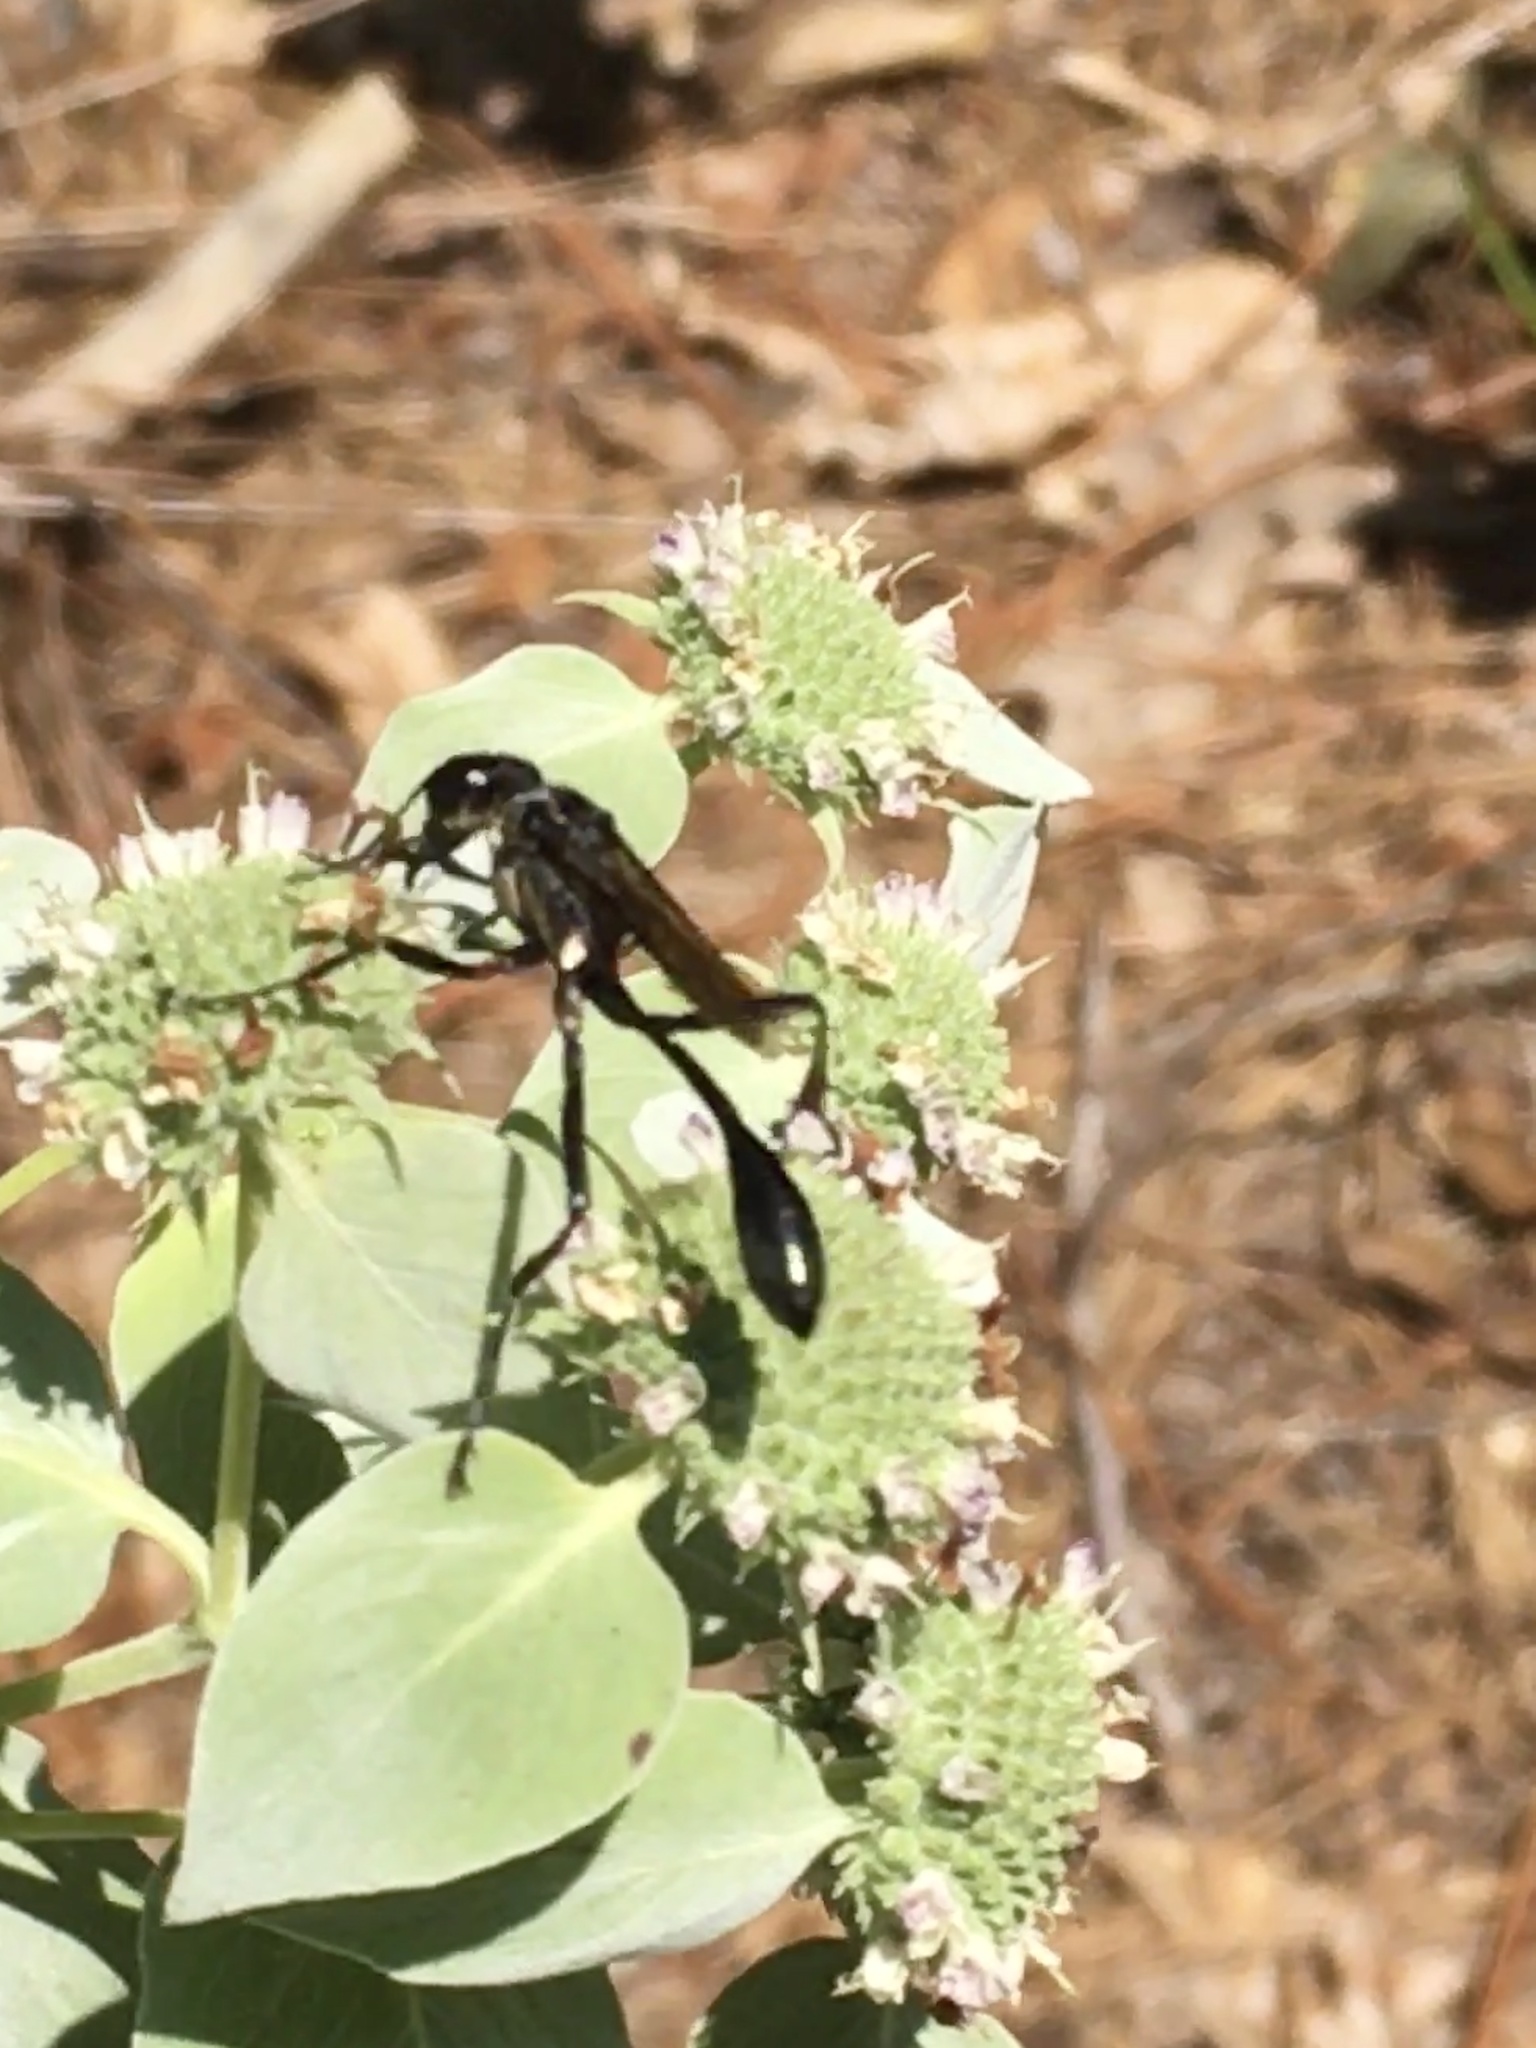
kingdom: Animalia
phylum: Arthropoda
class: Insecta
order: Hymenoptera
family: Sphecidae
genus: Eremnophila
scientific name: Eremnophila aureonotata
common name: Gold-marked thread-waisted wasp
